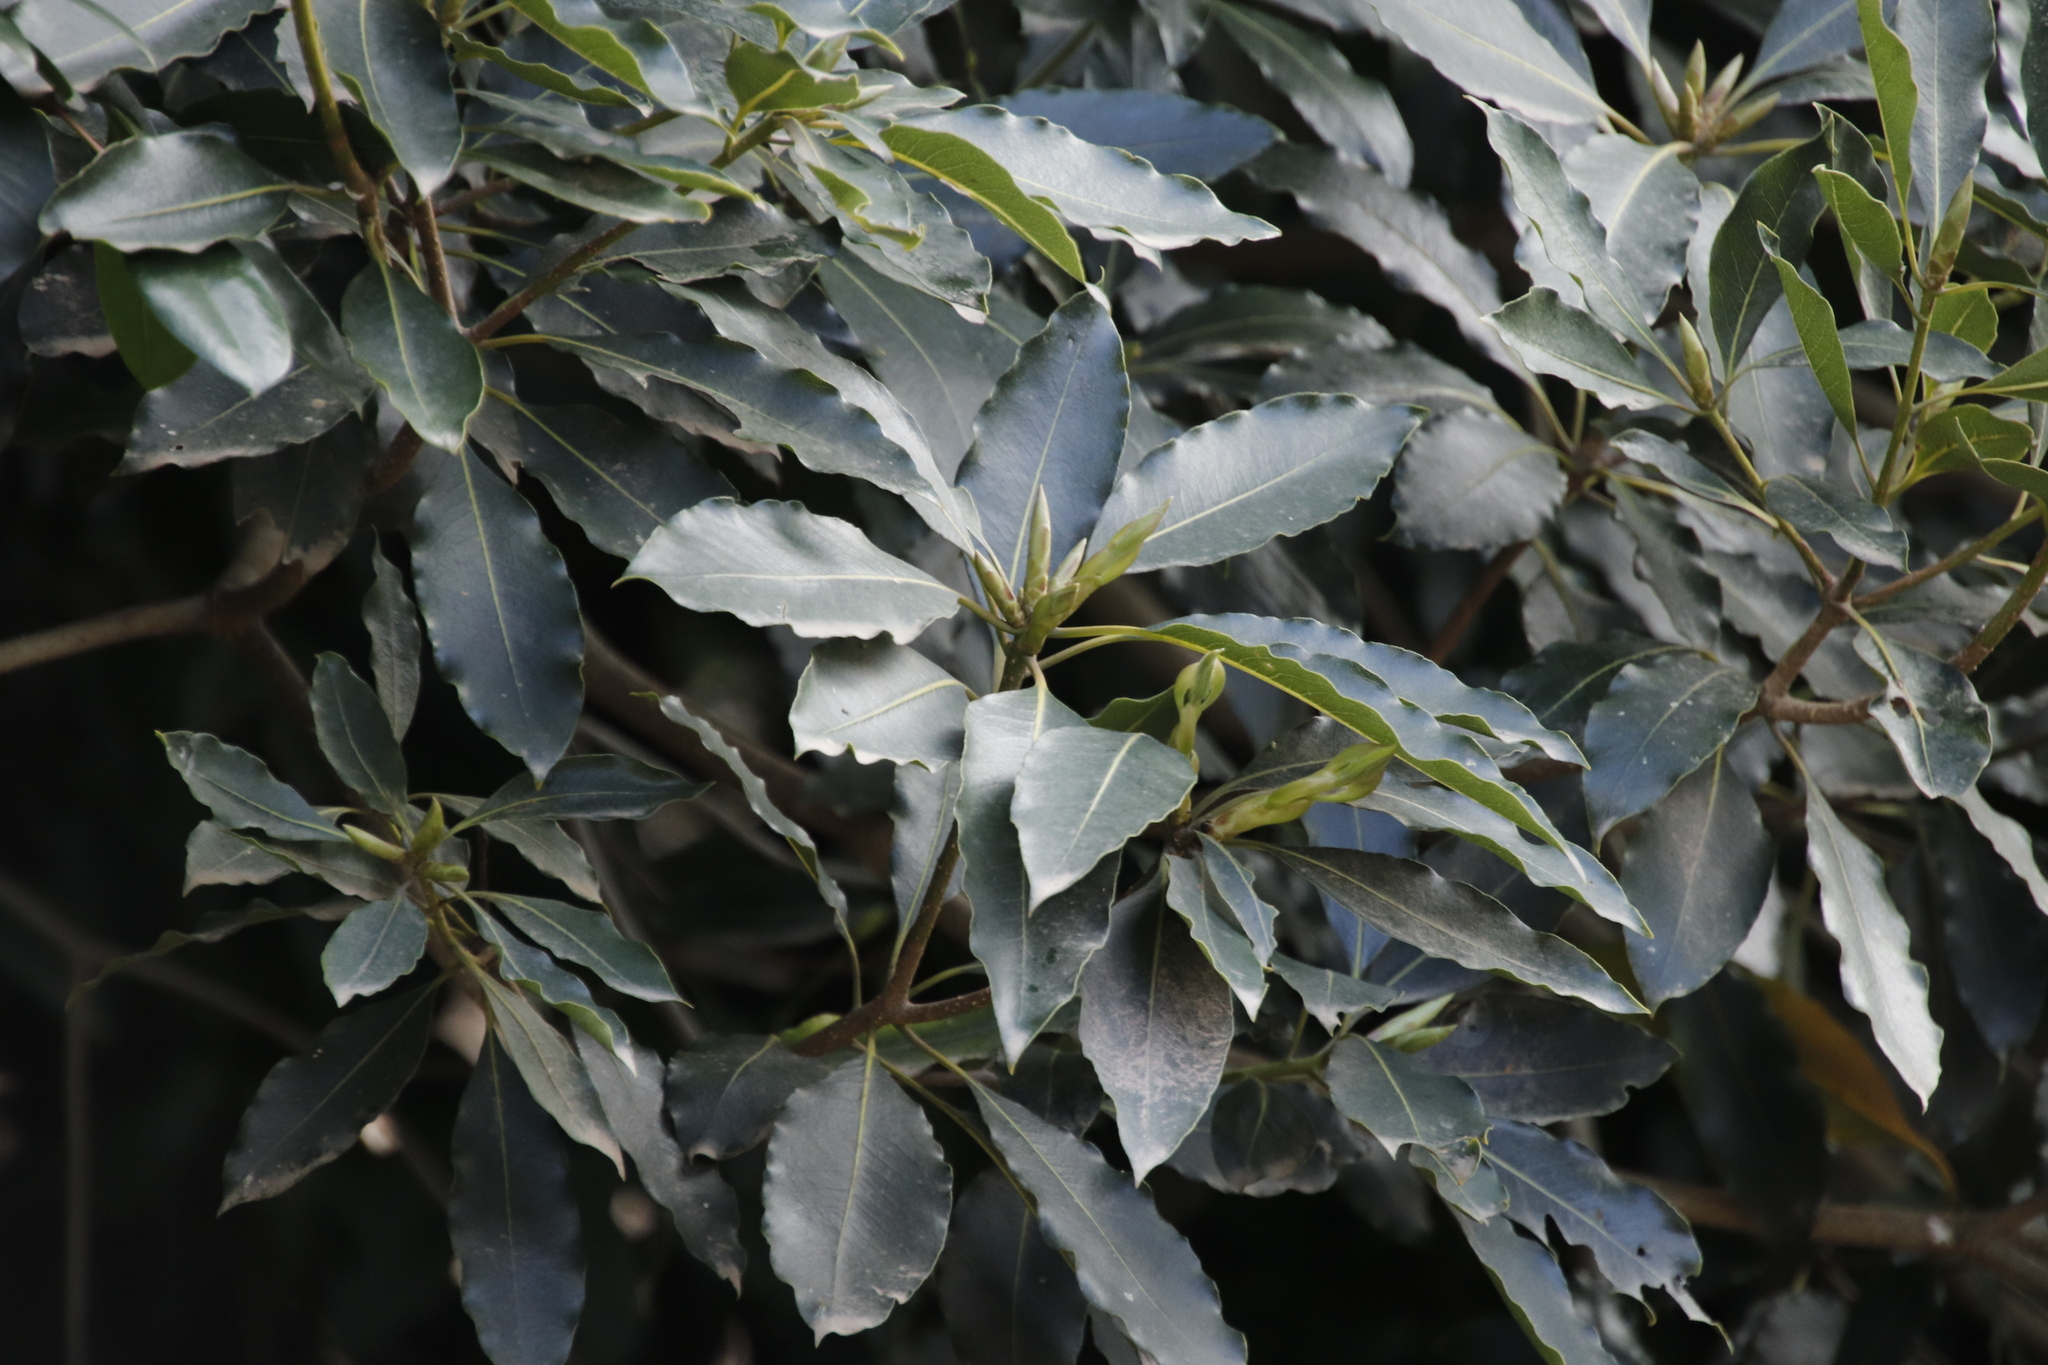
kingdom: Plantae
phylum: Tracheophyta
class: Magnoliopsida
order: Apiales
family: Pittosporaceae
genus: Pittosporum
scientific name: Pittosporum undulatum
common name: Australian cheesewood
